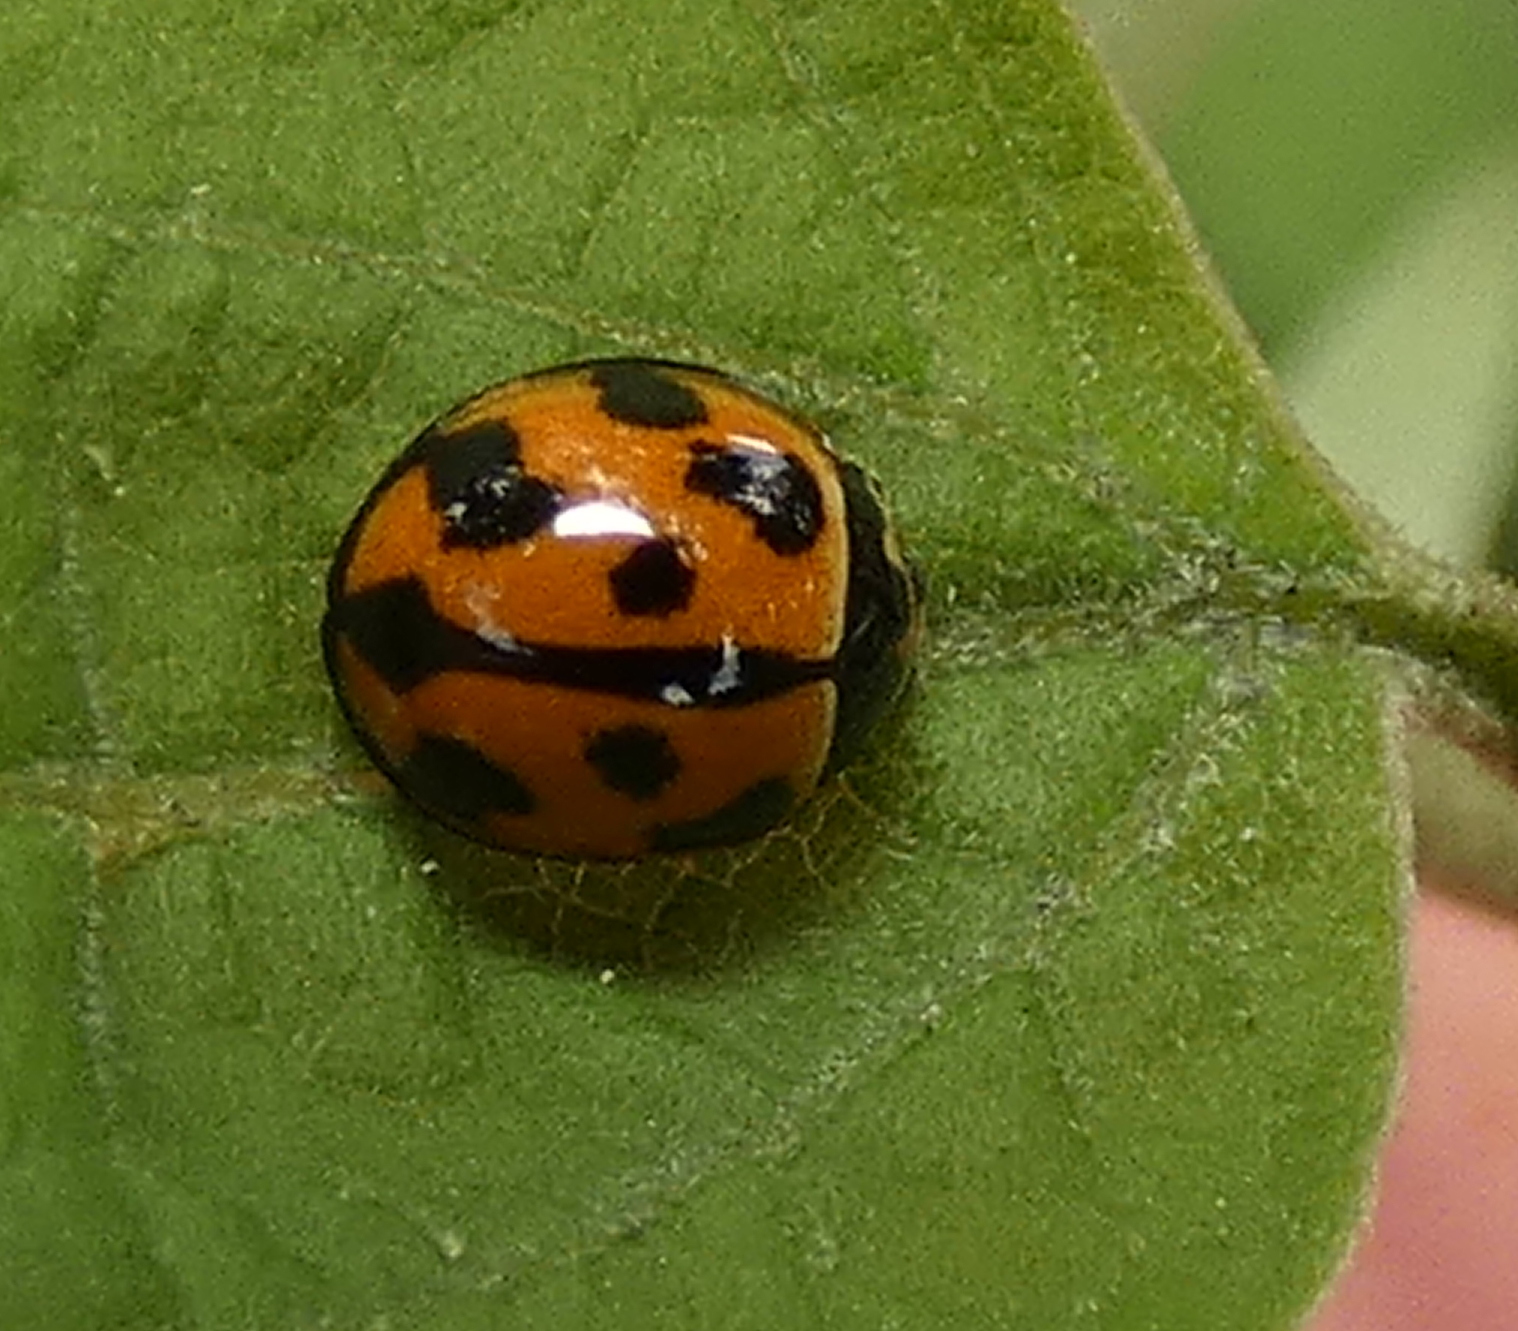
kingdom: Animalia
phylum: Arthropoda
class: Insecta
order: Coleoptera
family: Coccinellidae
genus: Coelophora
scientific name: Coelophora inaequalis
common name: Common australian lady beetle
